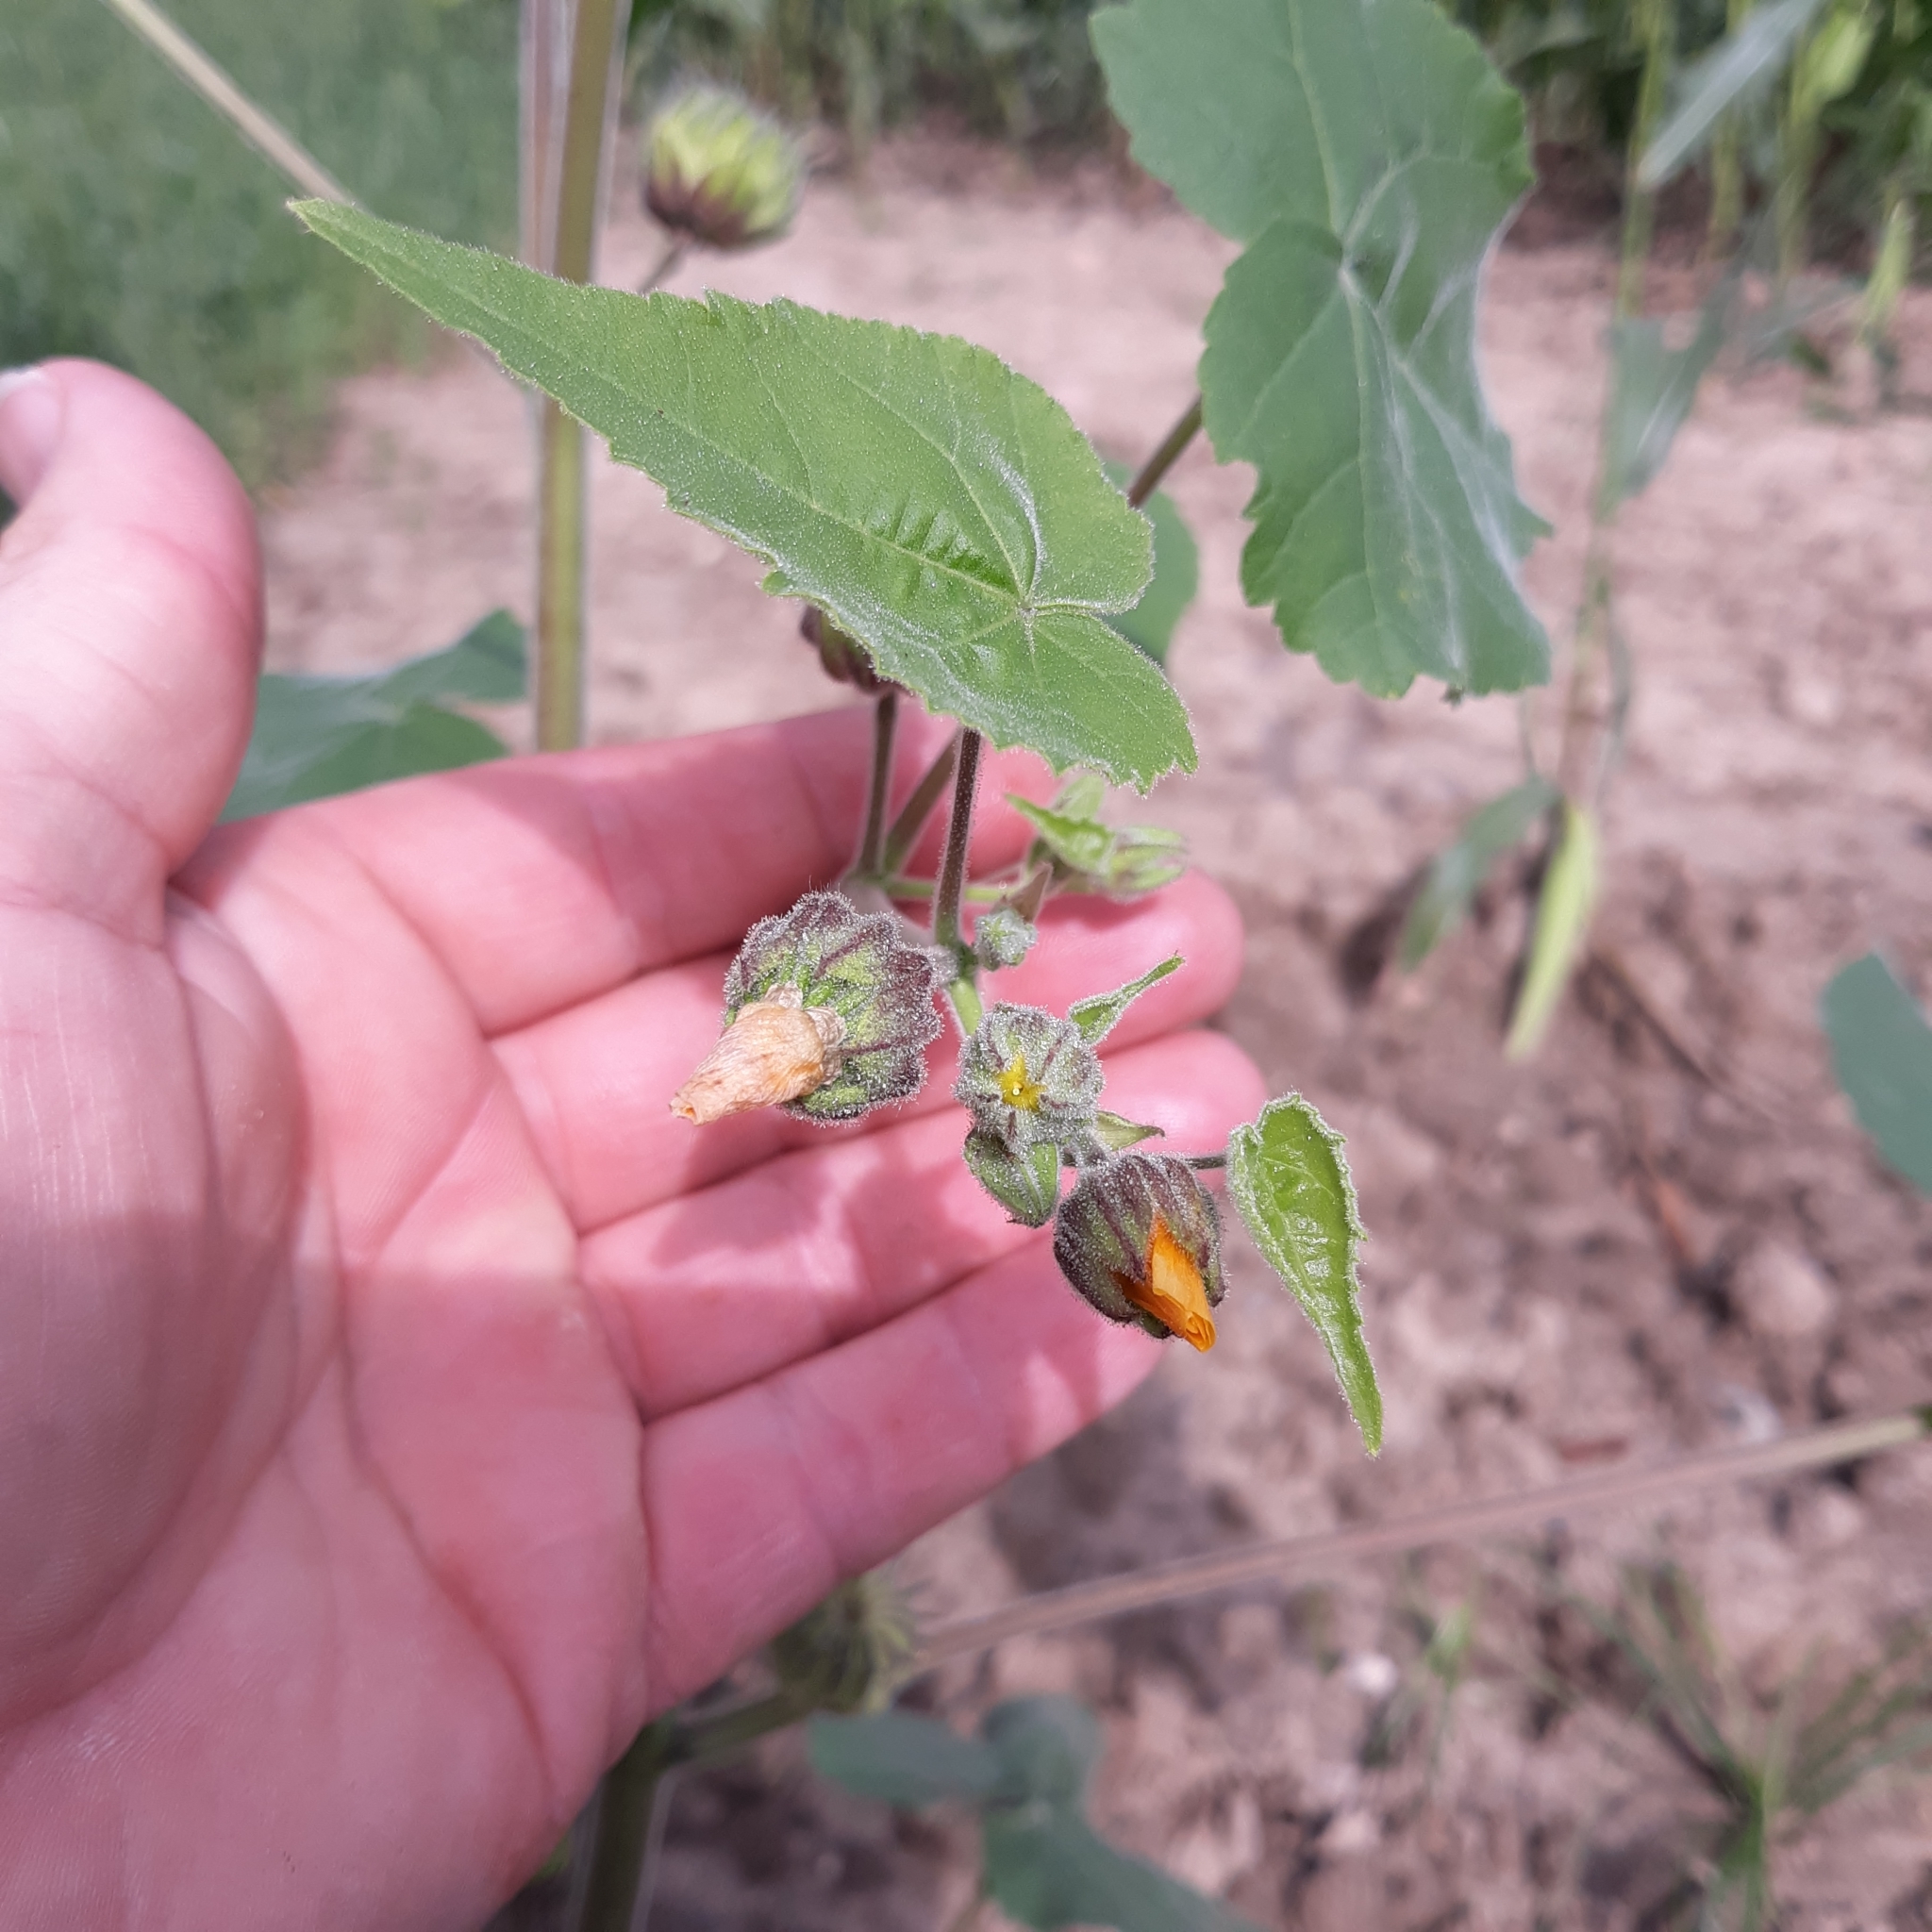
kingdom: Plantae
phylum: Tracheophyta
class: Magnoliopsida
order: Malvales
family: Malvaceae
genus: Abutilon
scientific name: Abutilon theophrasti
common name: Velvetleaf
